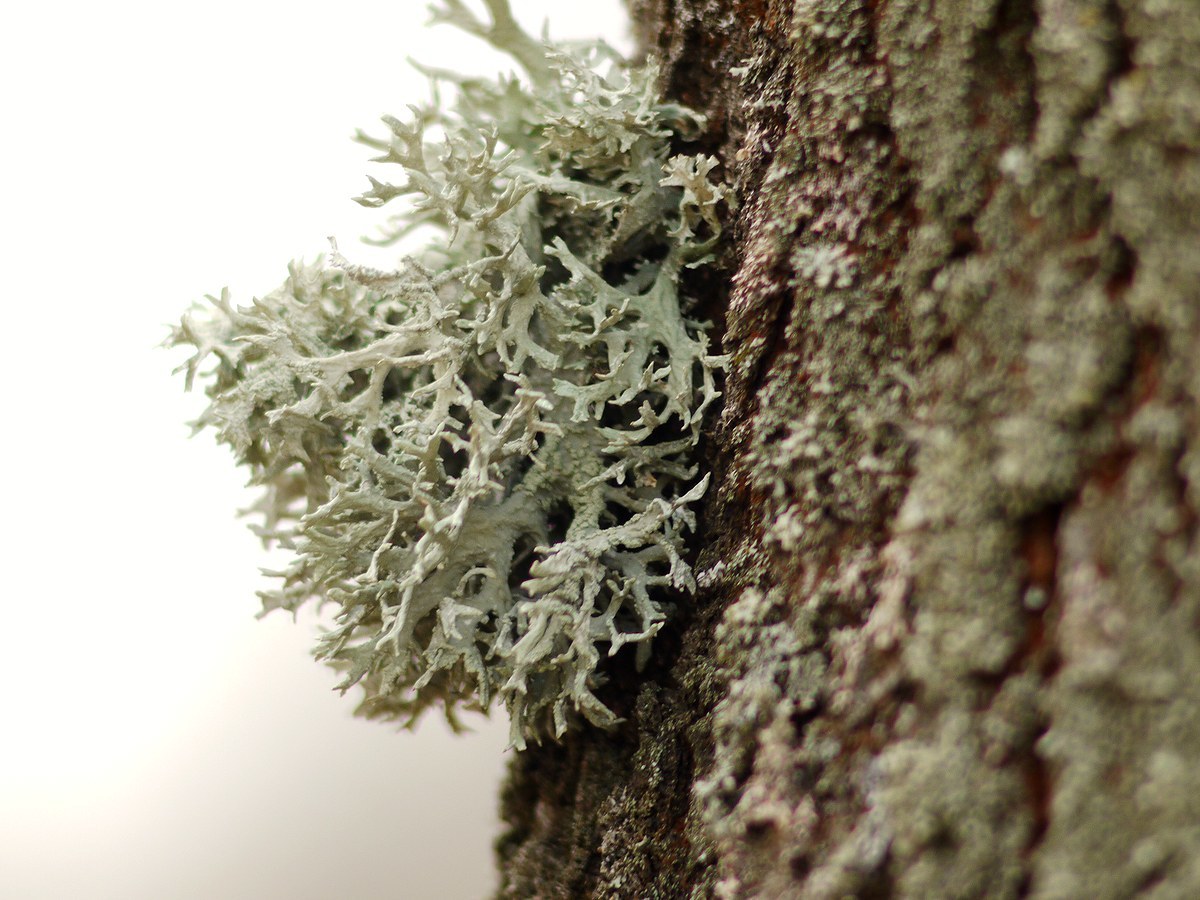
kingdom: Fungi
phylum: Ascomycota
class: Lecanoromycetes
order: Lecanorales
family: Parmeliaceae
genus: Evernia
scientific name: Evernia prunastri
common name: Oak moss
